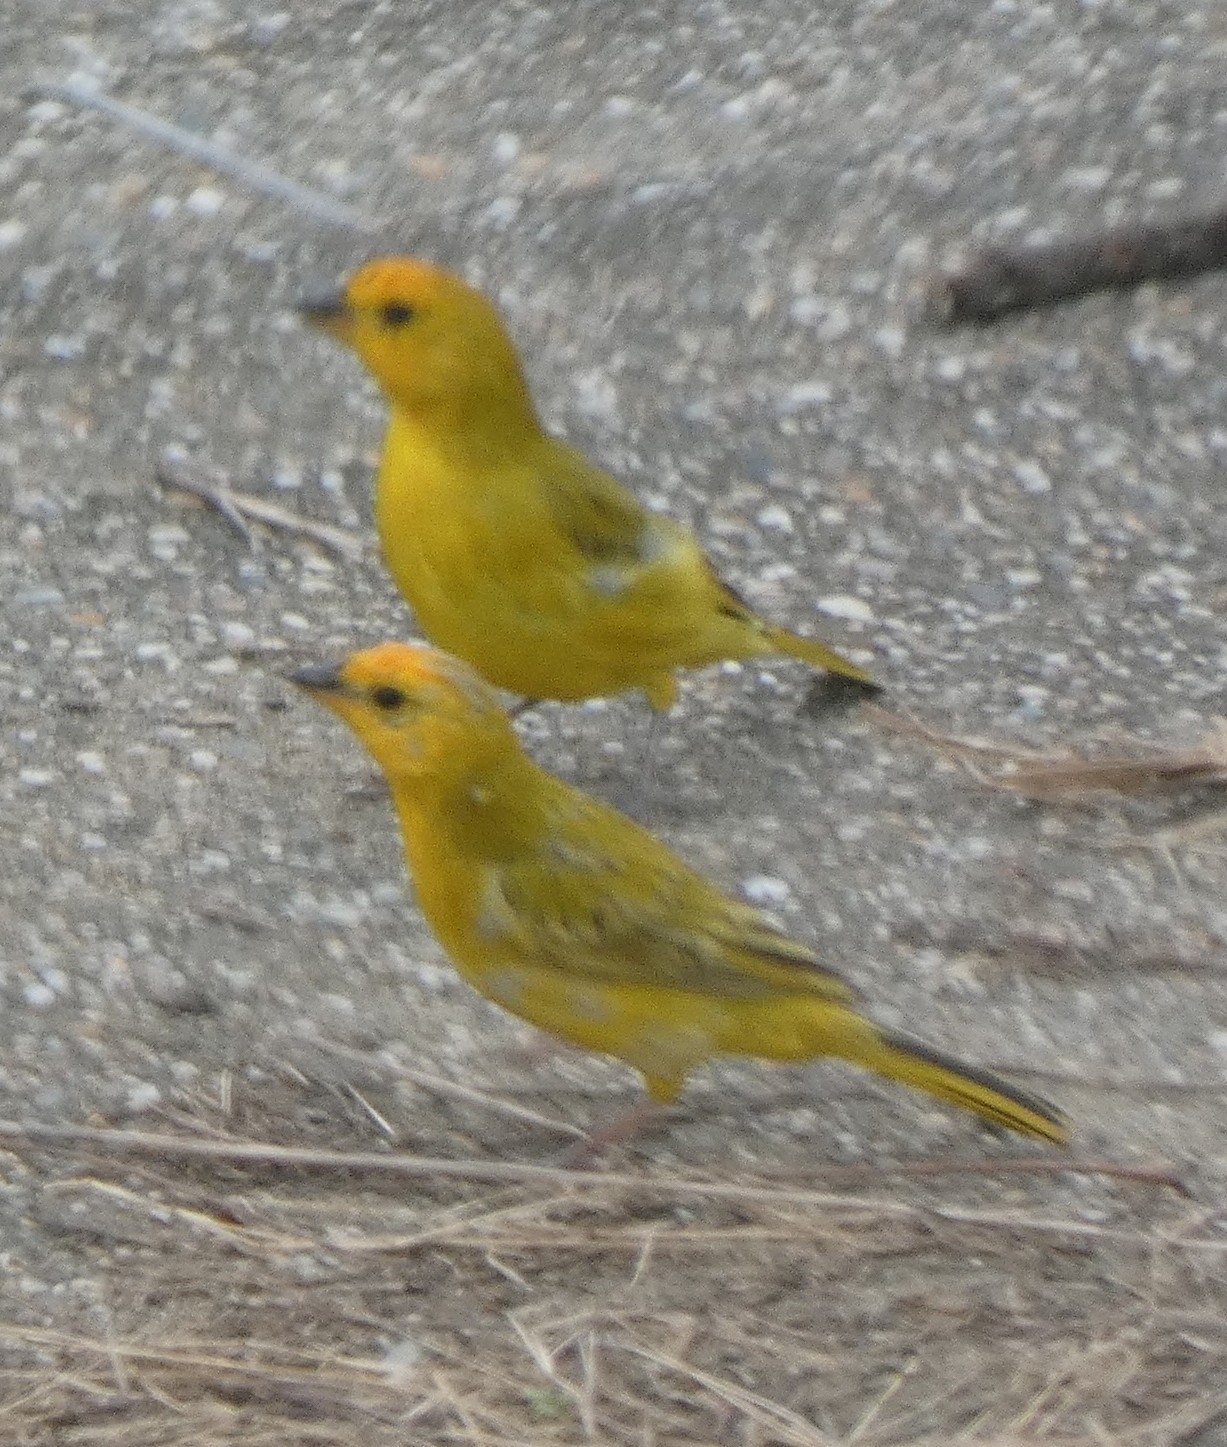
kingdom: Animalia
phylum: Chordata
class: Aves
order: Passeriformes
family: Thraupidae
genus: Sicalis
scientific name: Sicalis flaveola
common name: Saffron finch
